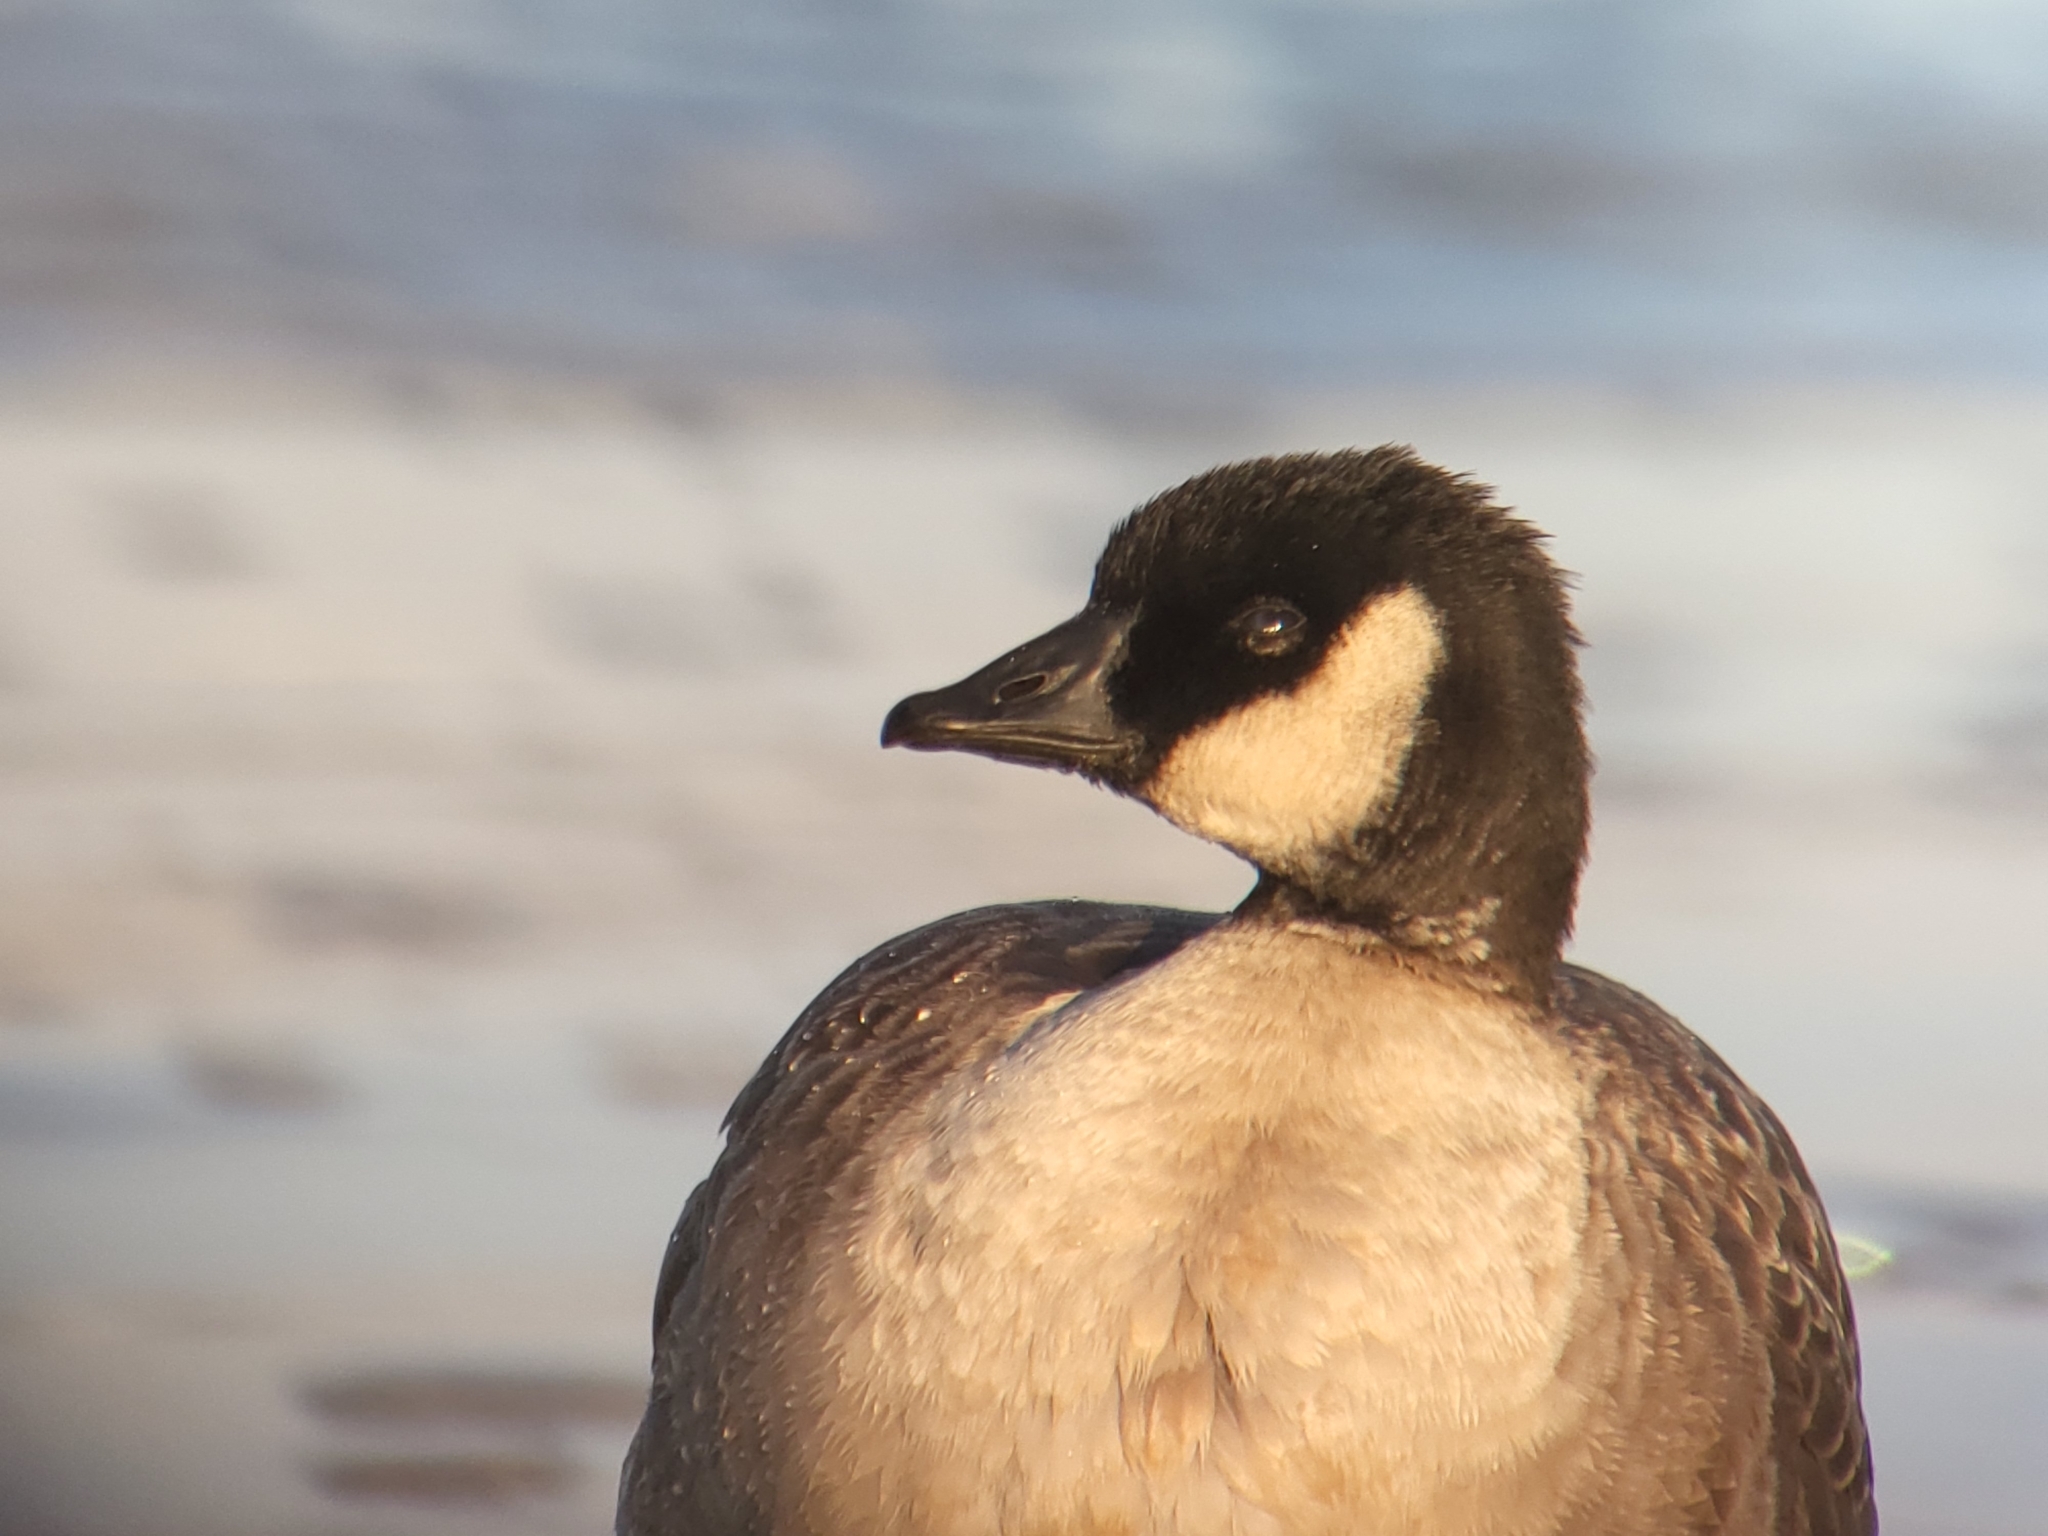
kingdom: Animalia
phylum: Chordata
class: Aves
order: Anseriformes
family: Anatidae
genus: Branta
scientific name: Branta hutchinsii
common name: Cackling goose
